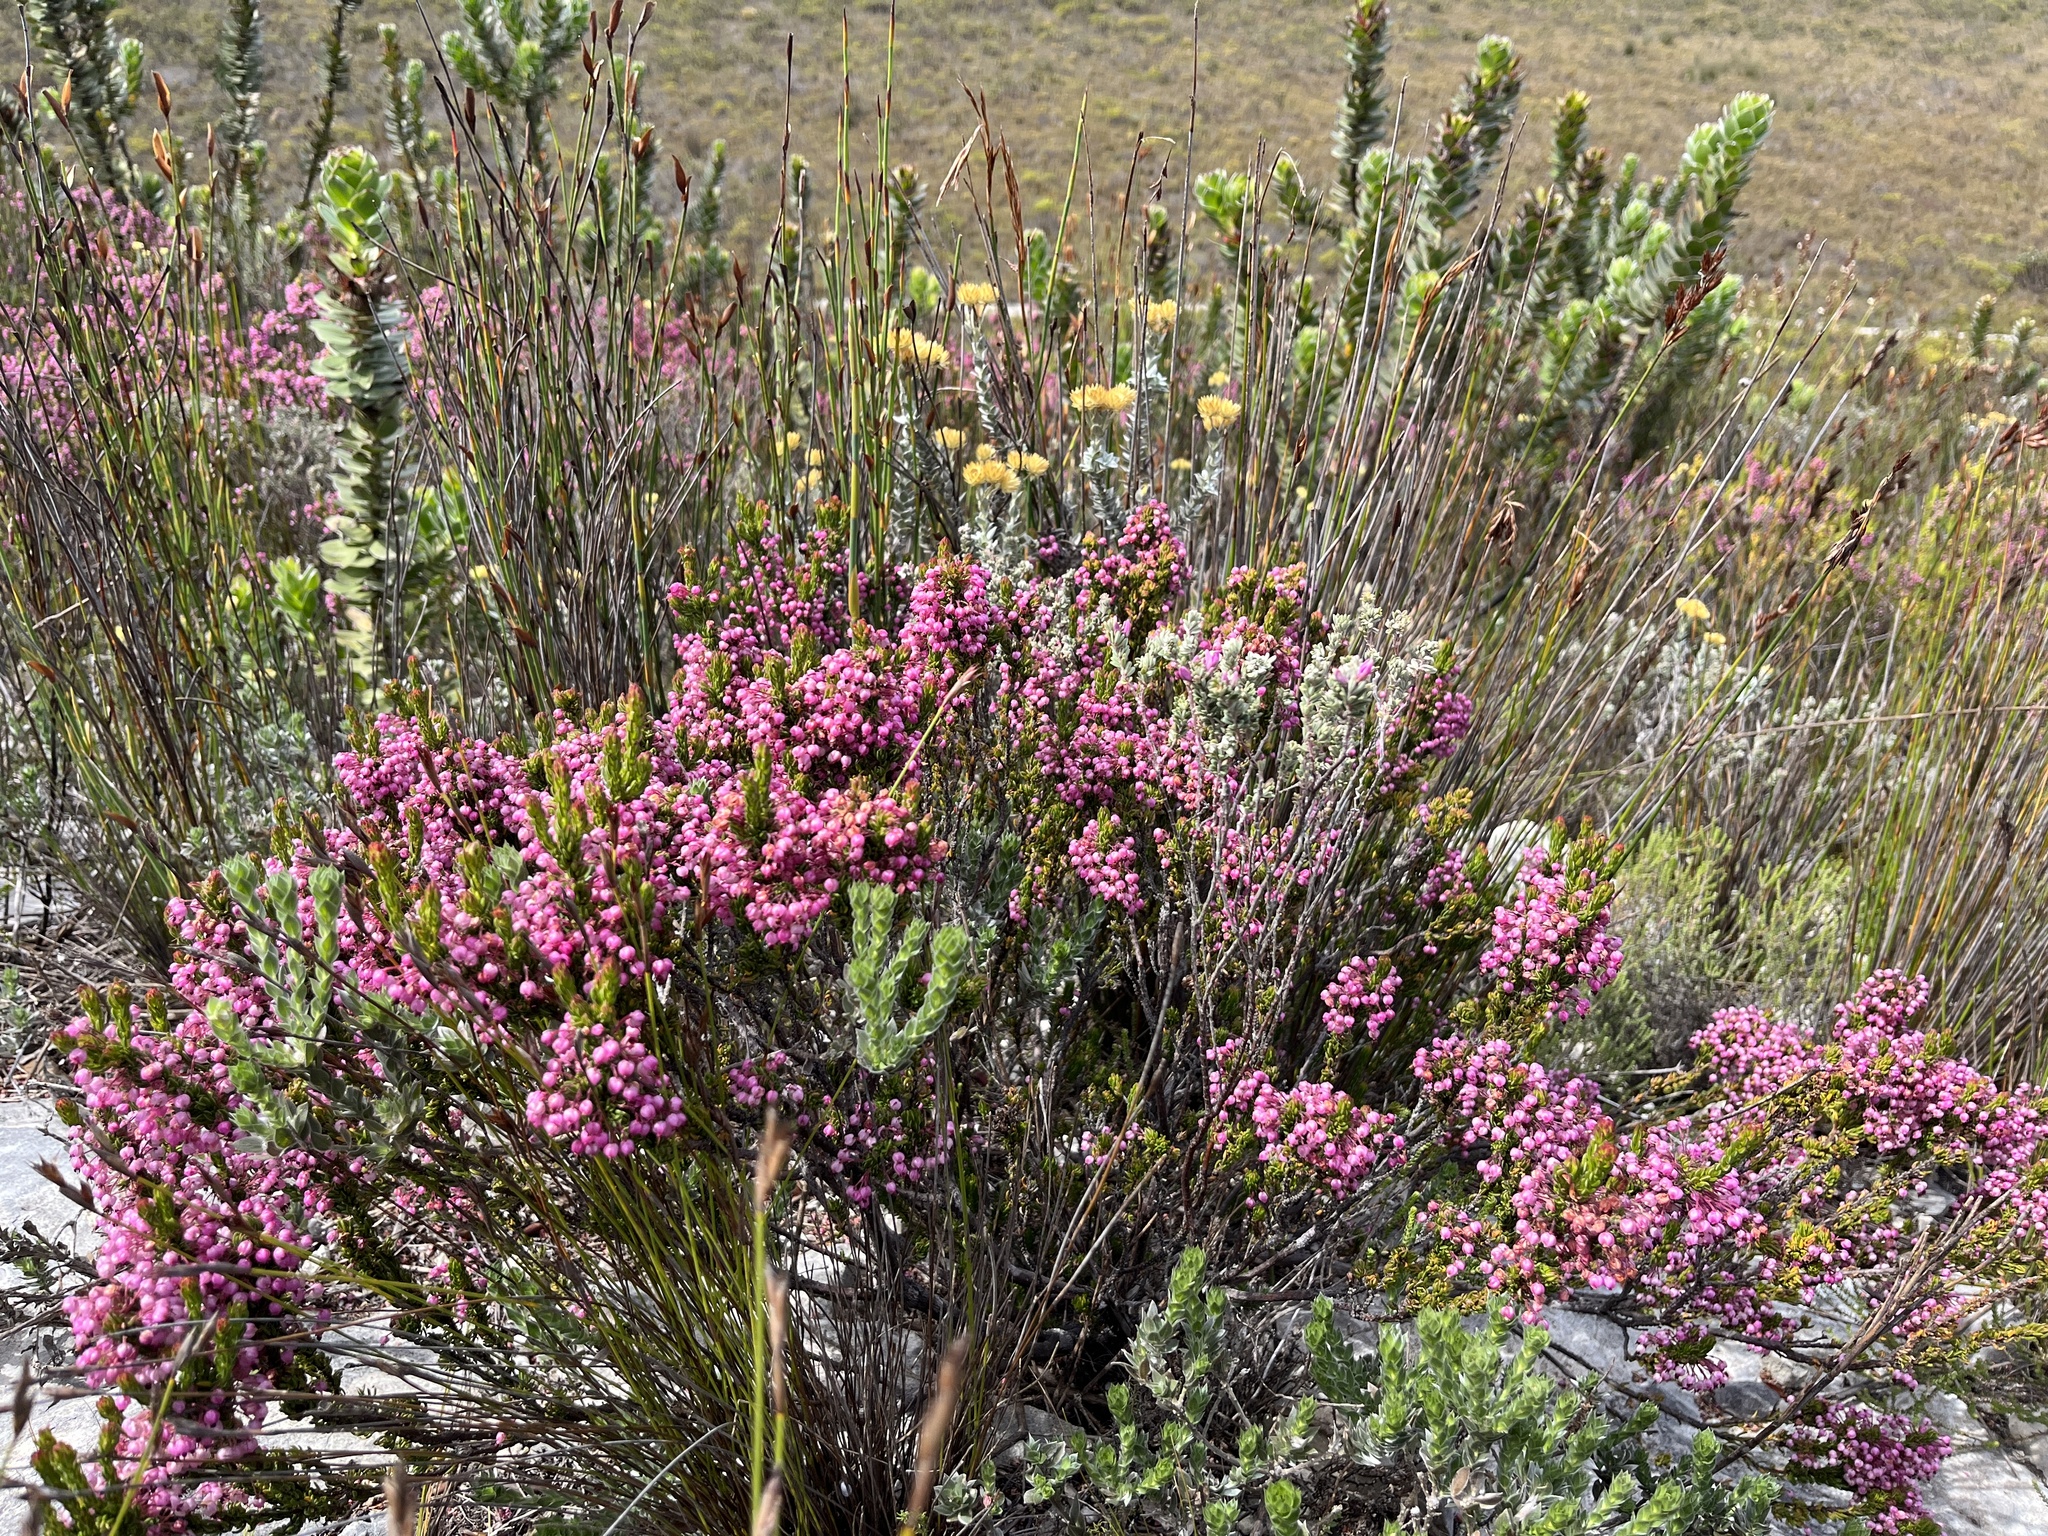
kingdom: Plantae
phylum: Tracheophyta
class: Magnoliopsida
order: Ericales
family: Ericaceae
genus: Erica
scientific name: Erica gracilipes
